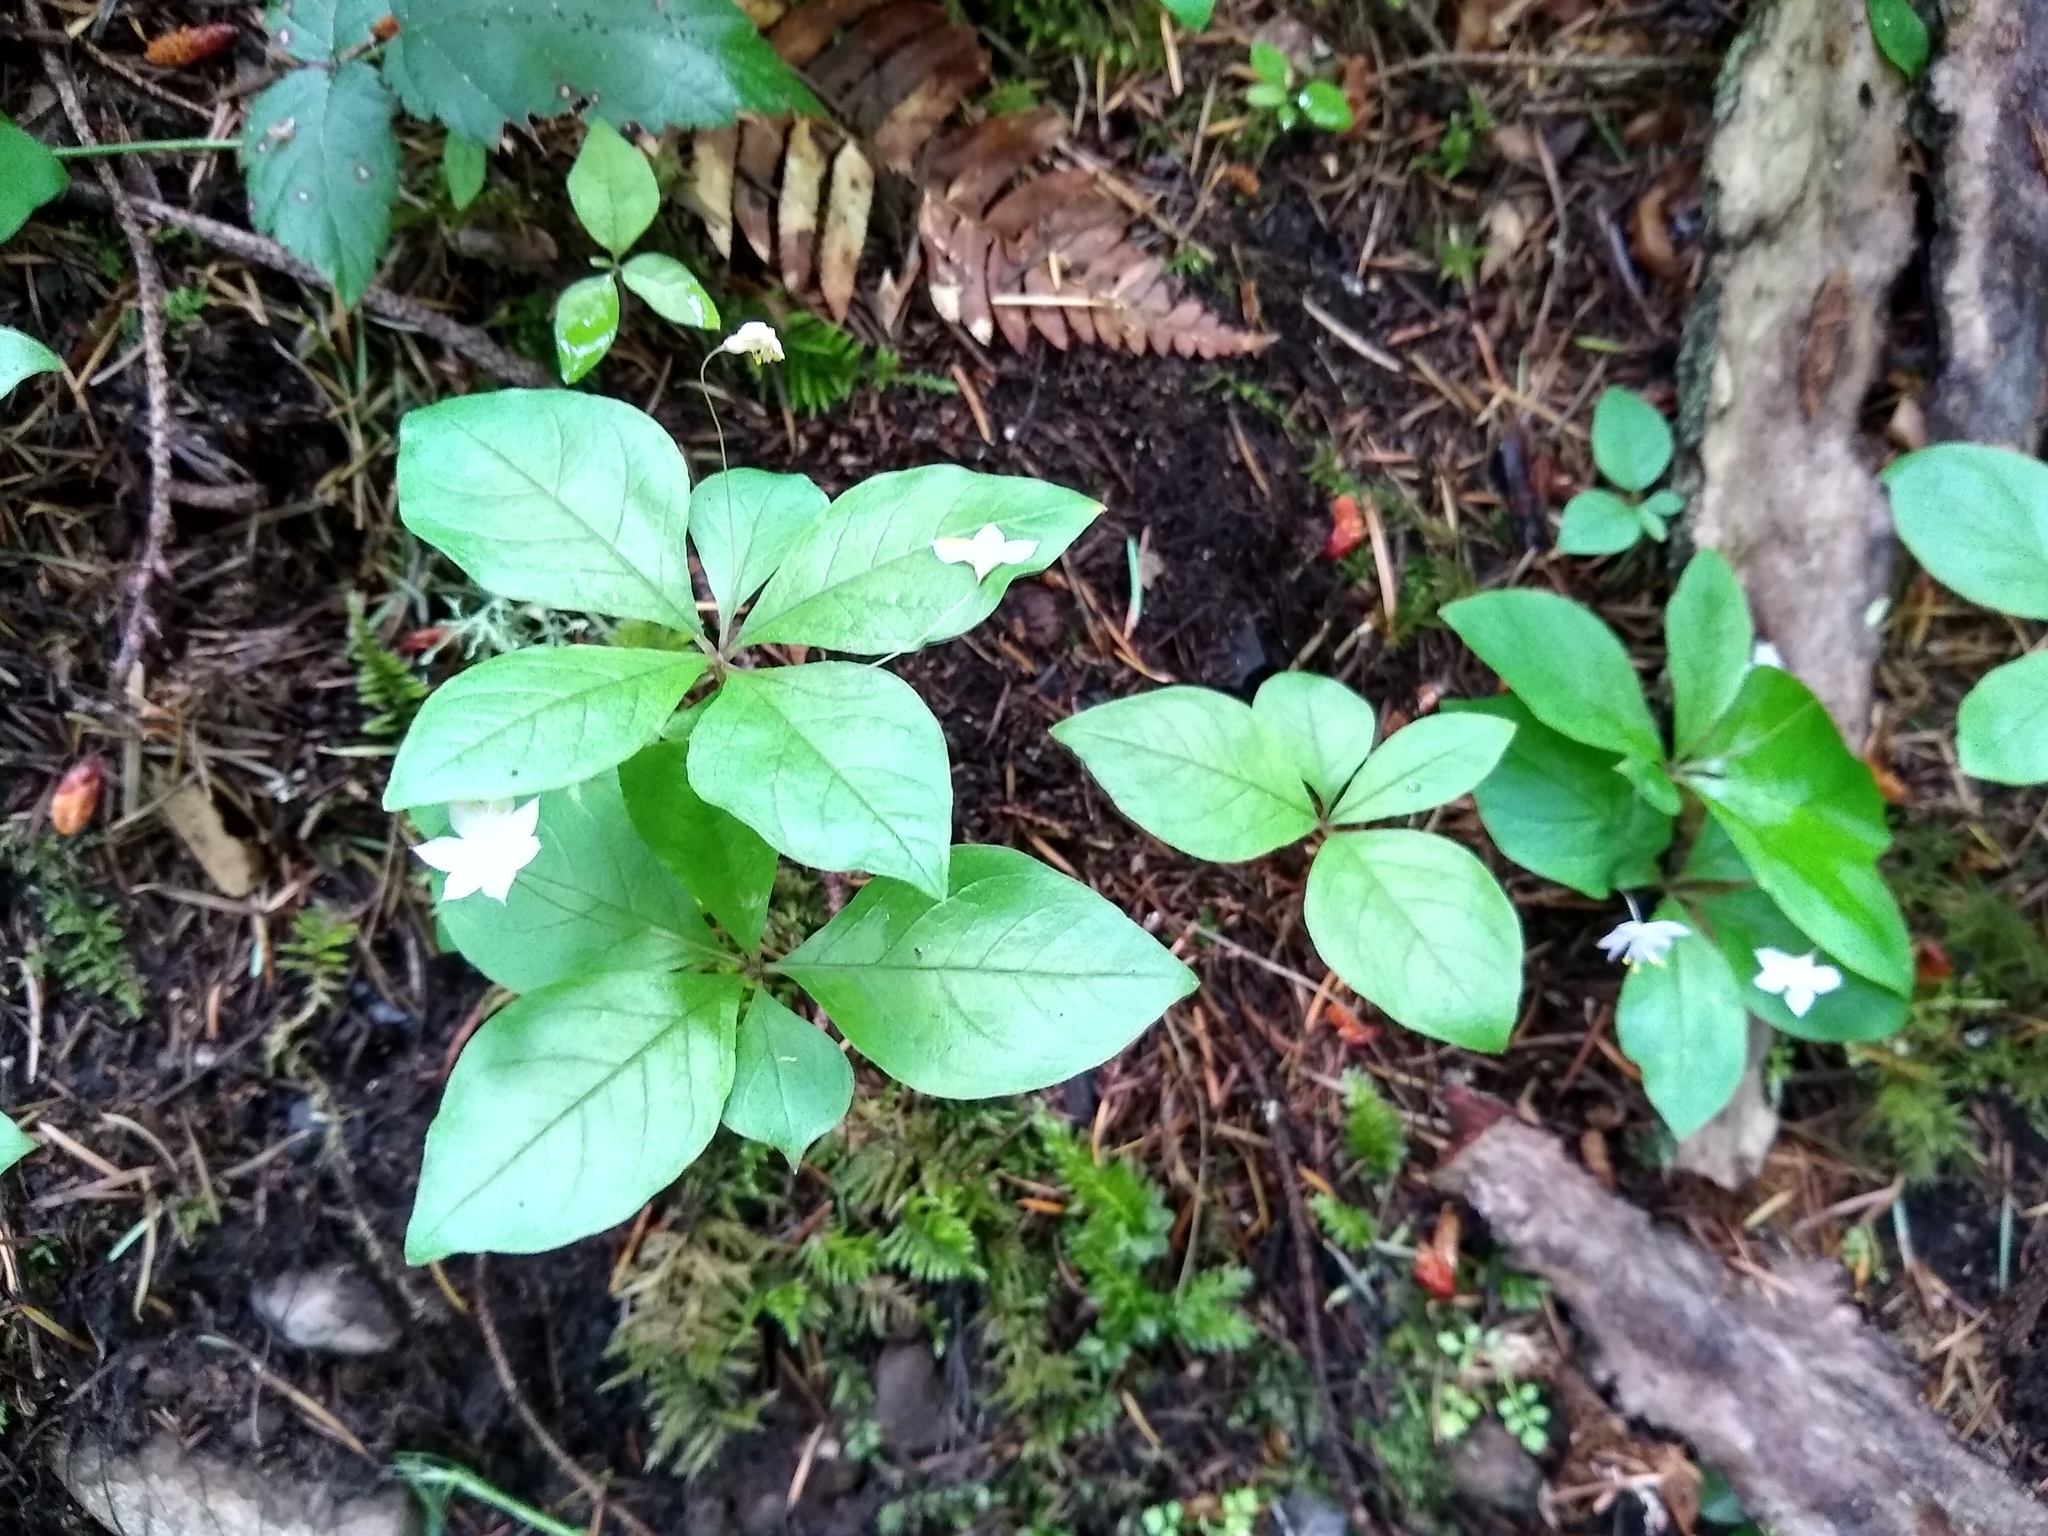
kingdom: Plantae
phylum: Tracheophyta
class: Magnoliopsida
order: Ericales
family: Primulaceae
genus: Lysimachia
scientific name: Lysimachia latifolia
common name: Pacific starflower
